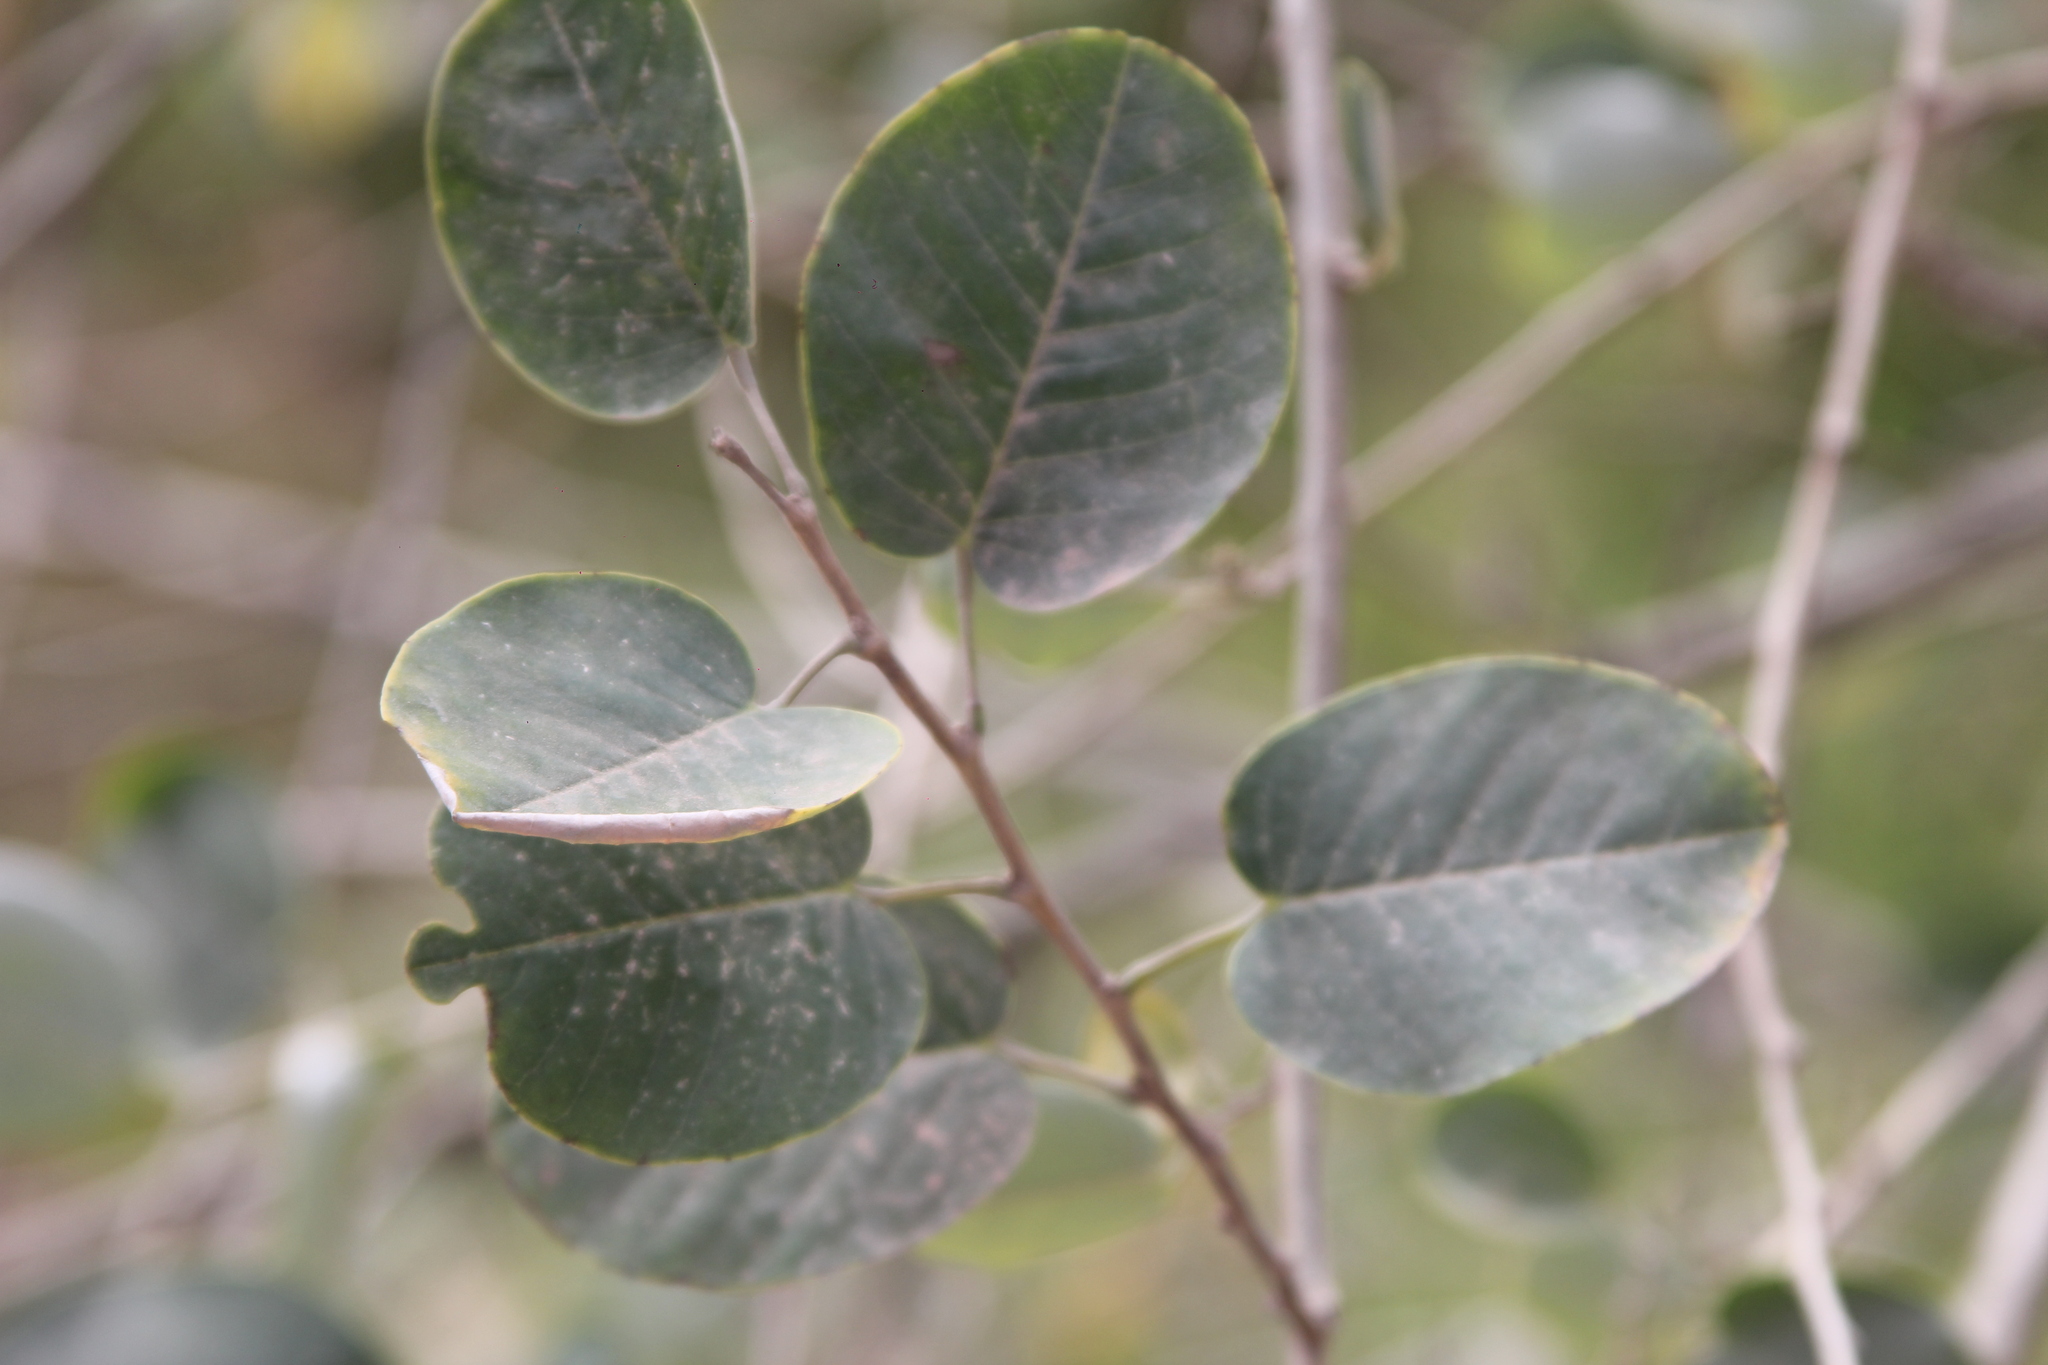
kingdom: Plantae
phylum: Tracheophyta
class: Magnoliopsida
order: Fabales
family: Fabaceae
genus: Poissonia
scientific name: Poissonia hypoleuca
